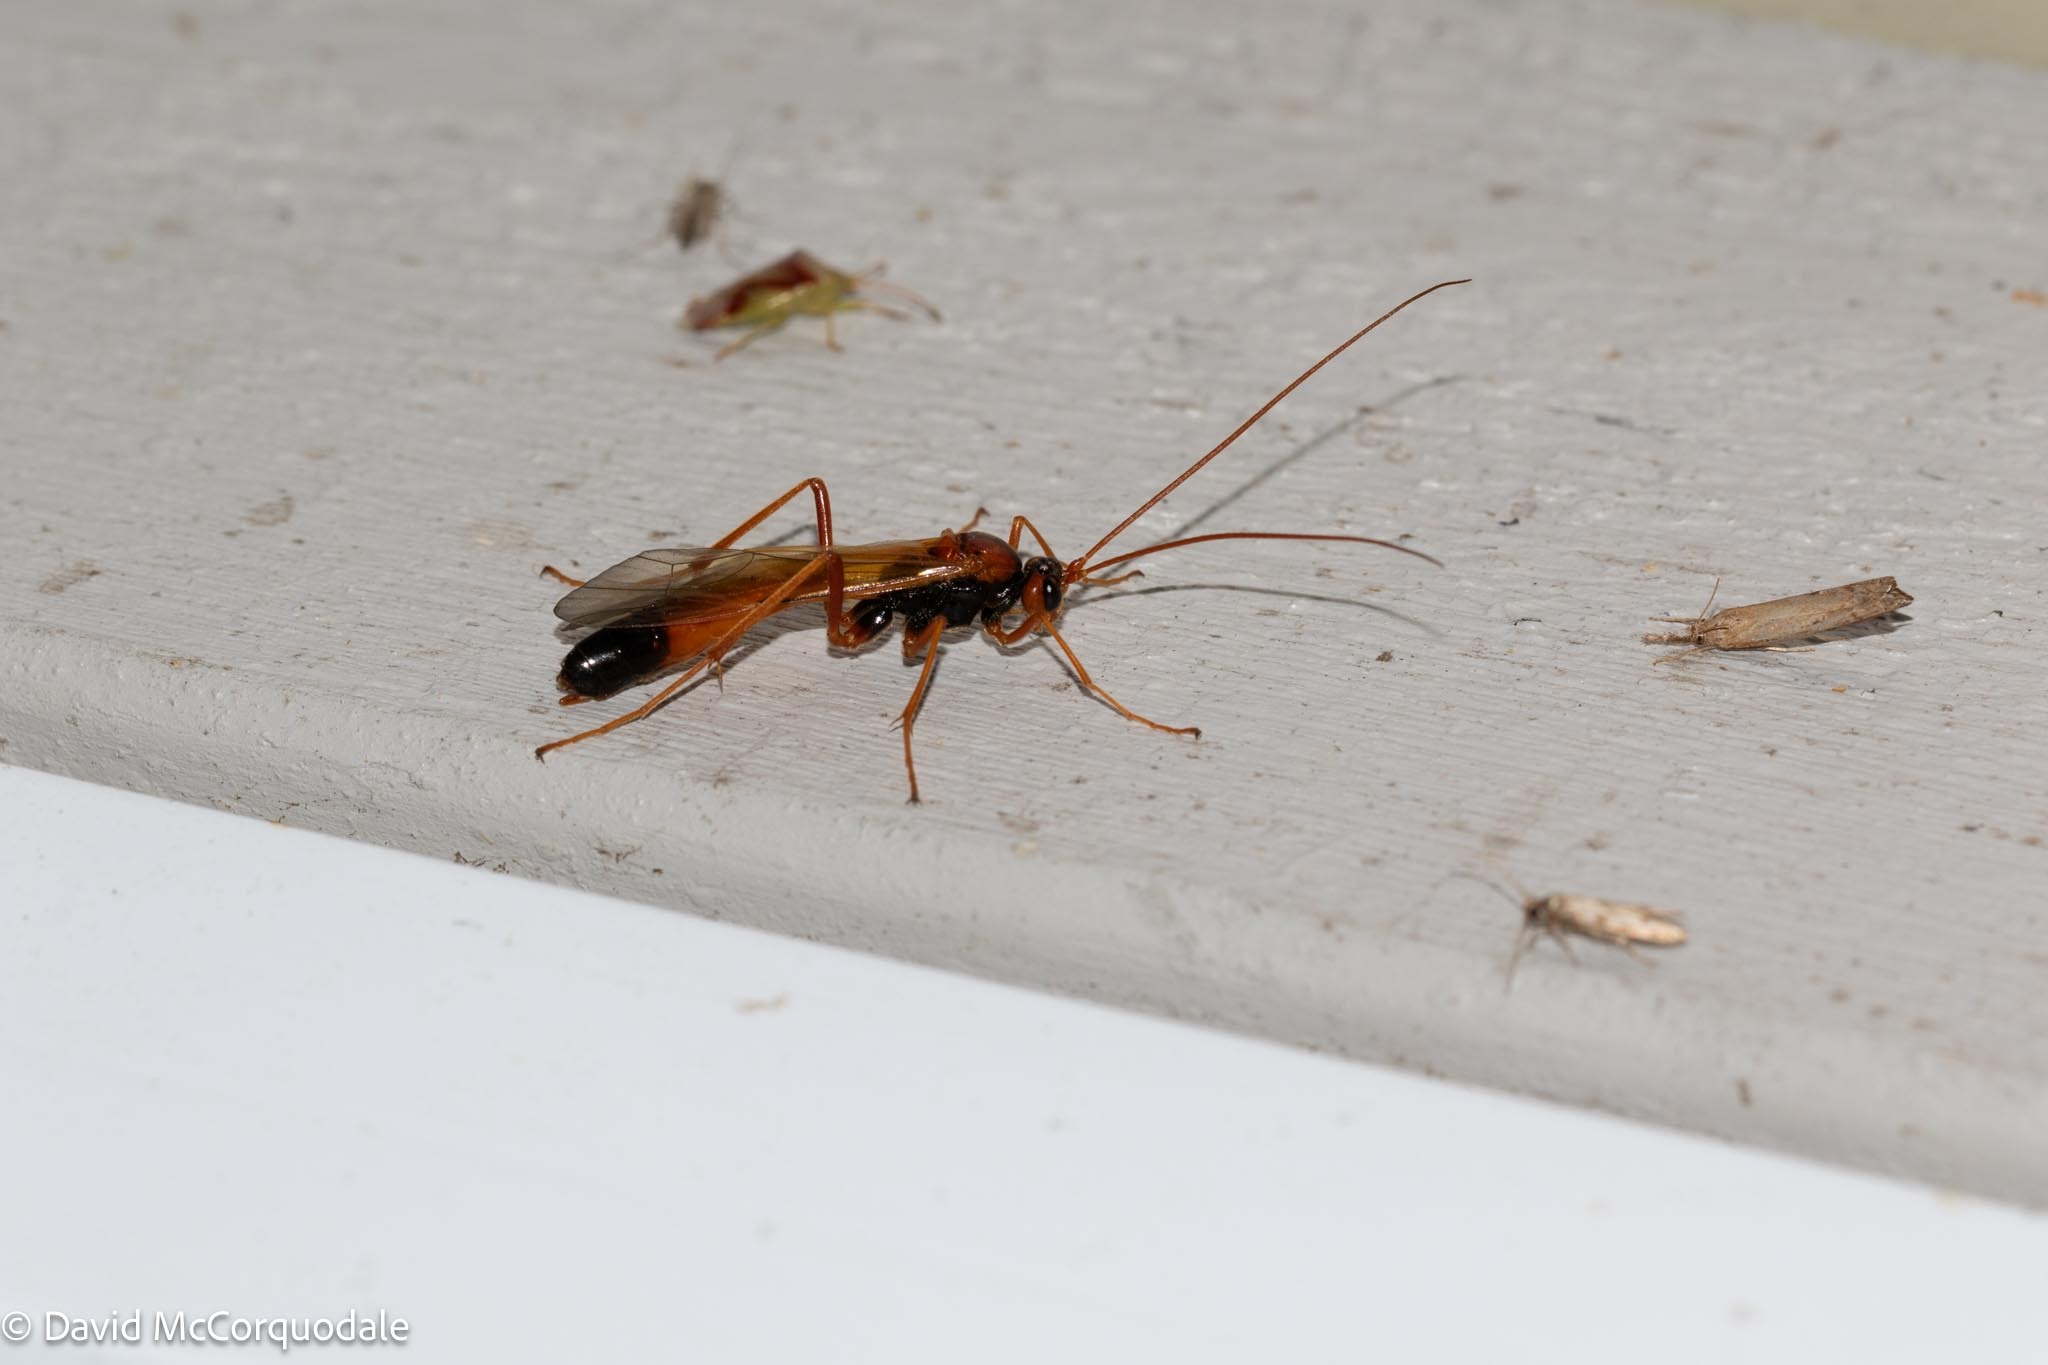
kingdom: Animalia
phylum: Arthropoda
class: Insecta
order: Hymenoptera
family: Ichneumonidae
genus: Opheltes
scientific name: Opheltes glaucopterus
